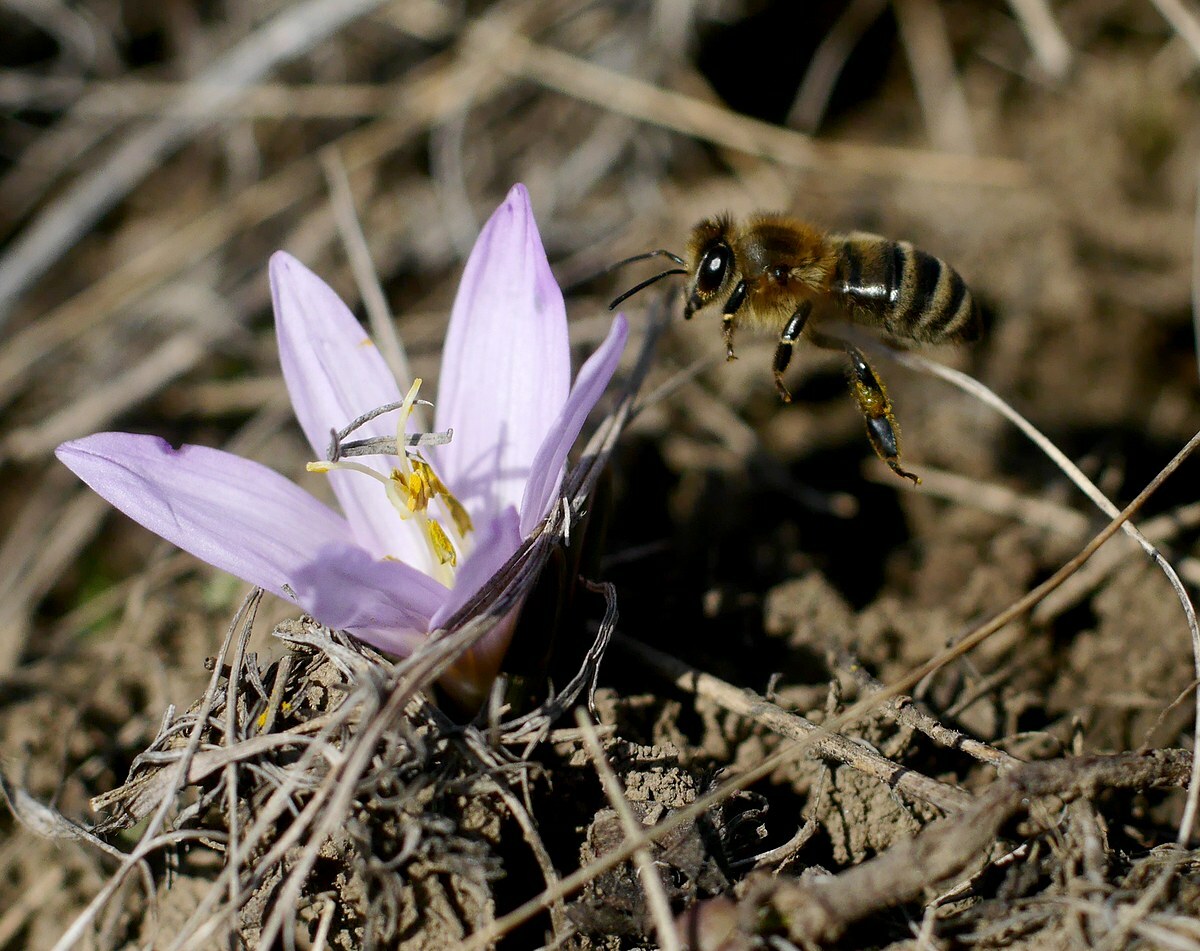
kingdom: Plantae
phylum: Tracheophyta
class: Liliopsida
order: Liliales
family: Colchicaceae
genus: Colchicum
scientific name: Colchicum bulbocodium
